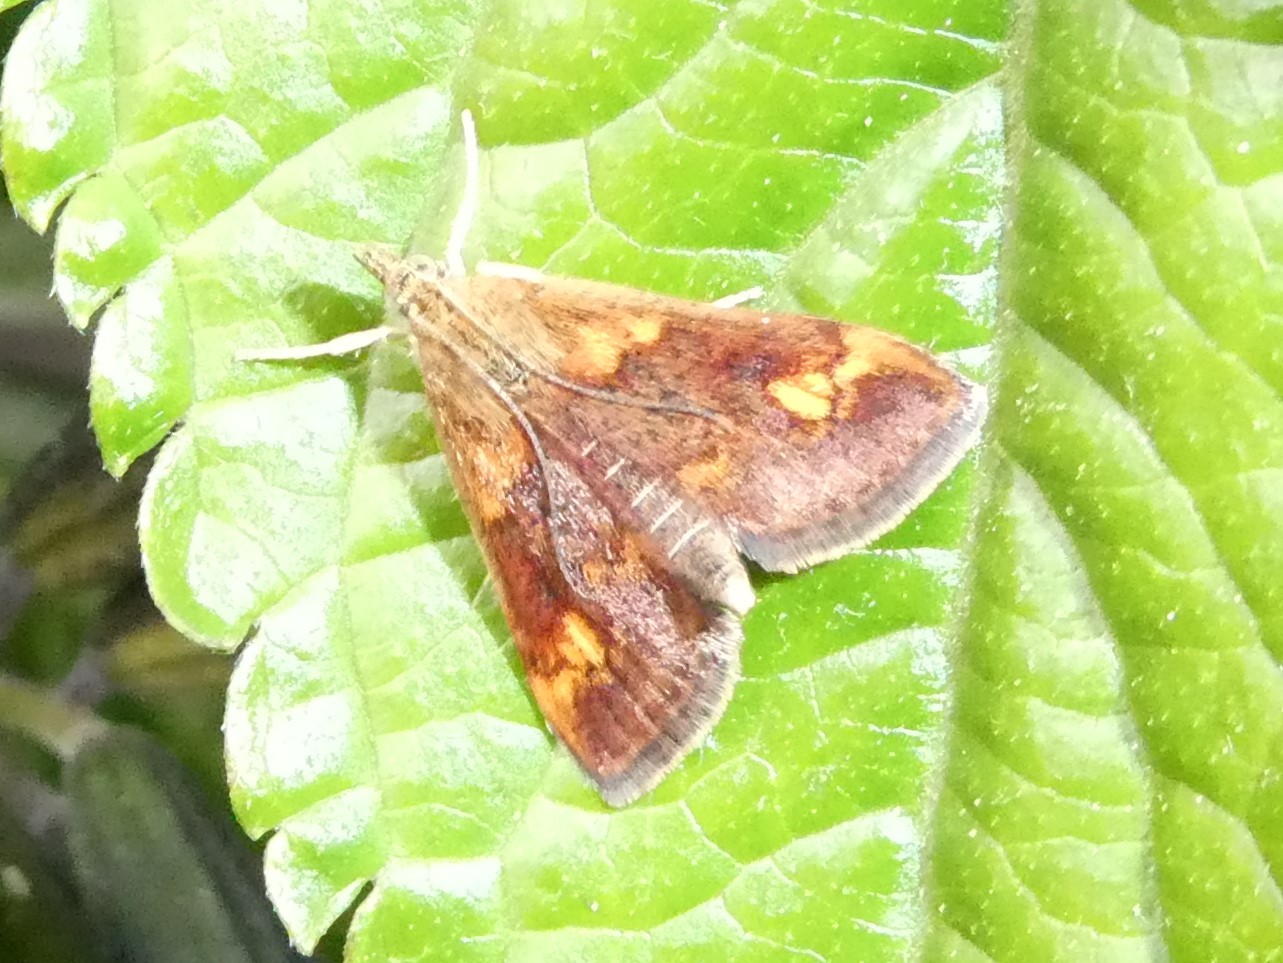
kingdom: Animalia
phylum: Arthropoda
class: Insecta
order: Lepidoptera
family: Crambidae
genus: Pyrausta
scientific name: Pyrausta orphisalis
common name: Orange mint moth
